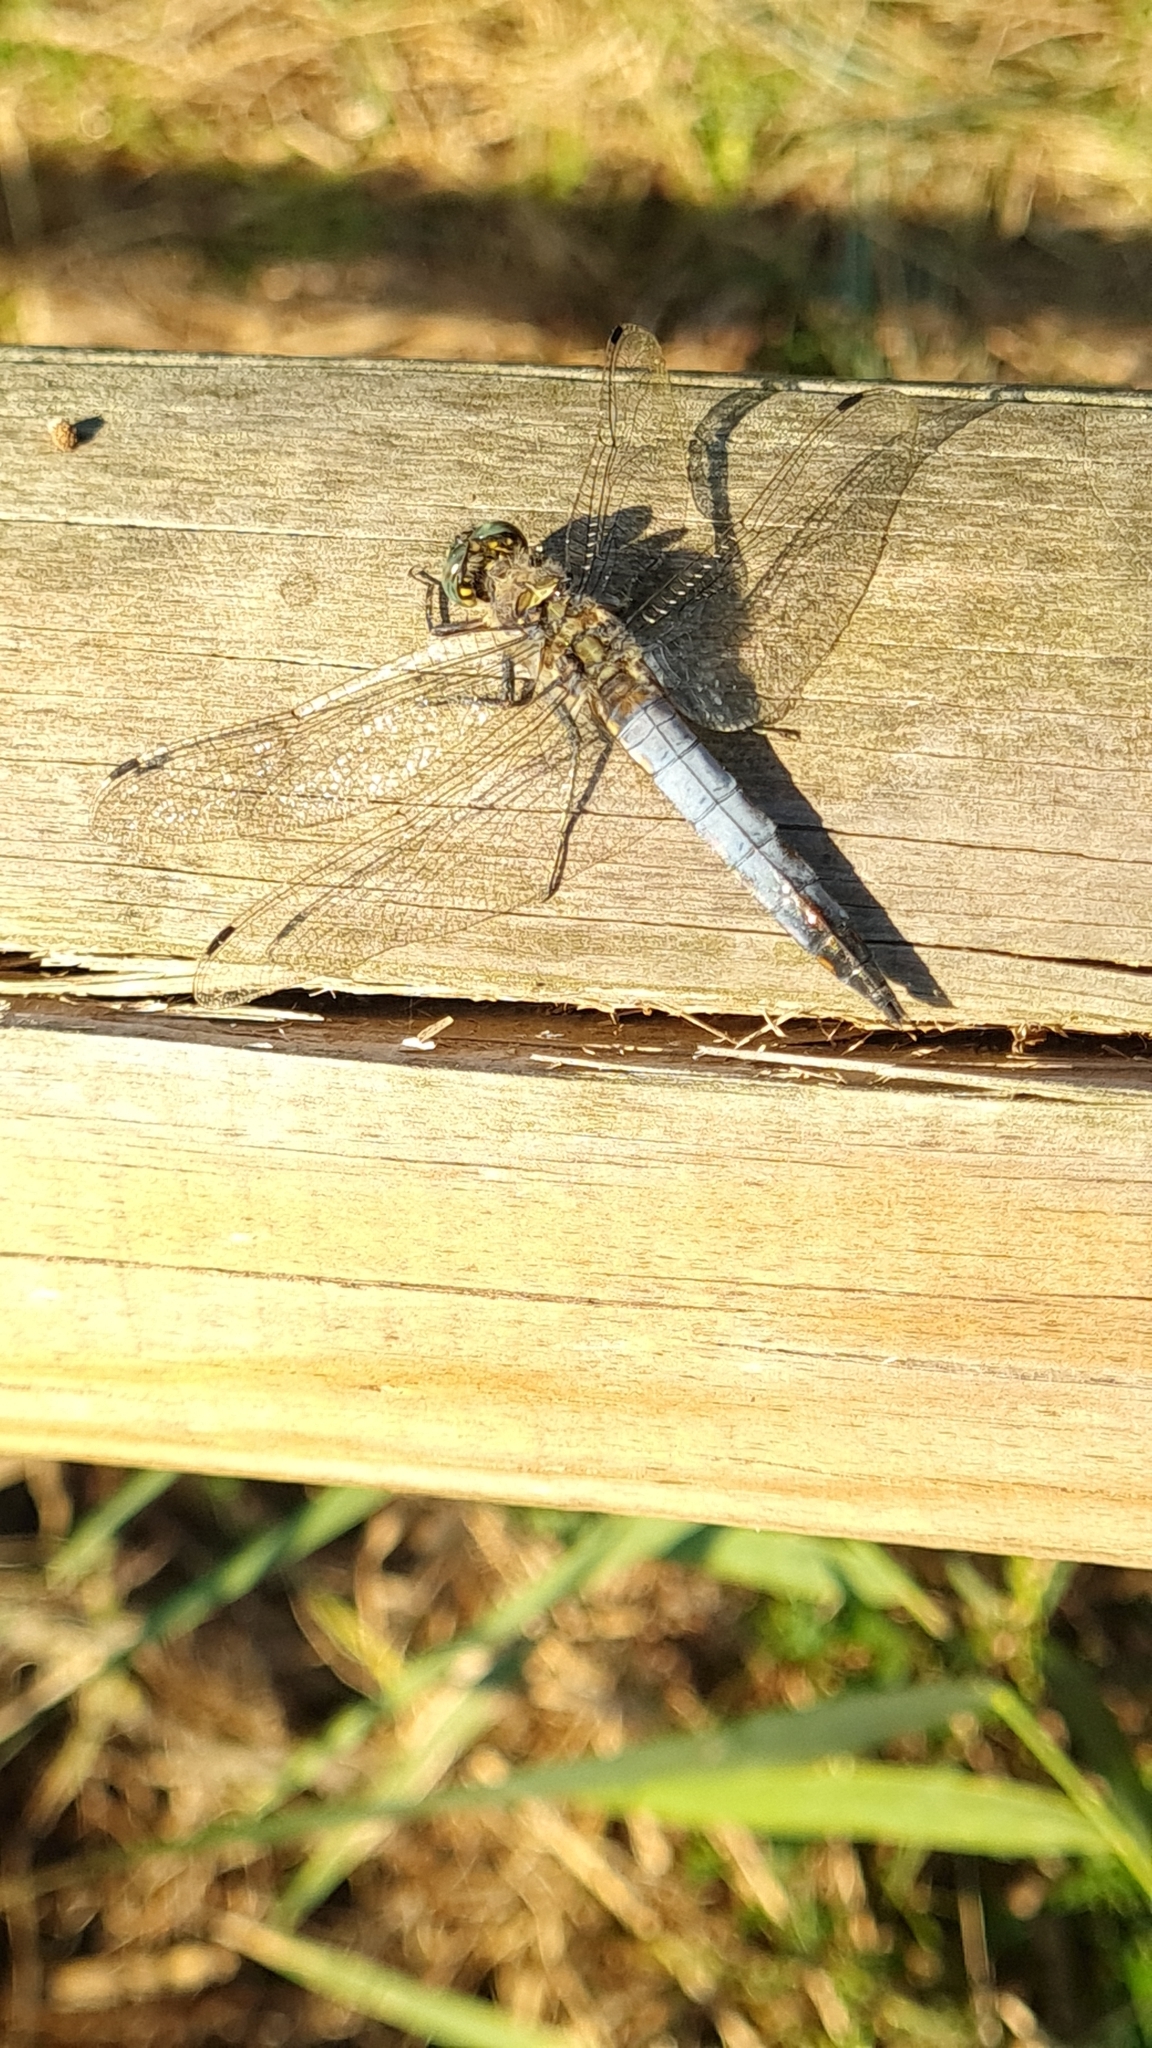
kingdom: Animalia
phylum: Arthropoda
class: Insecta
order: Odonata
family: Libellulidae
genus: Orthetrum
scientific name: Orthetrum cancellatum
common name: Black-tailed skimmer
